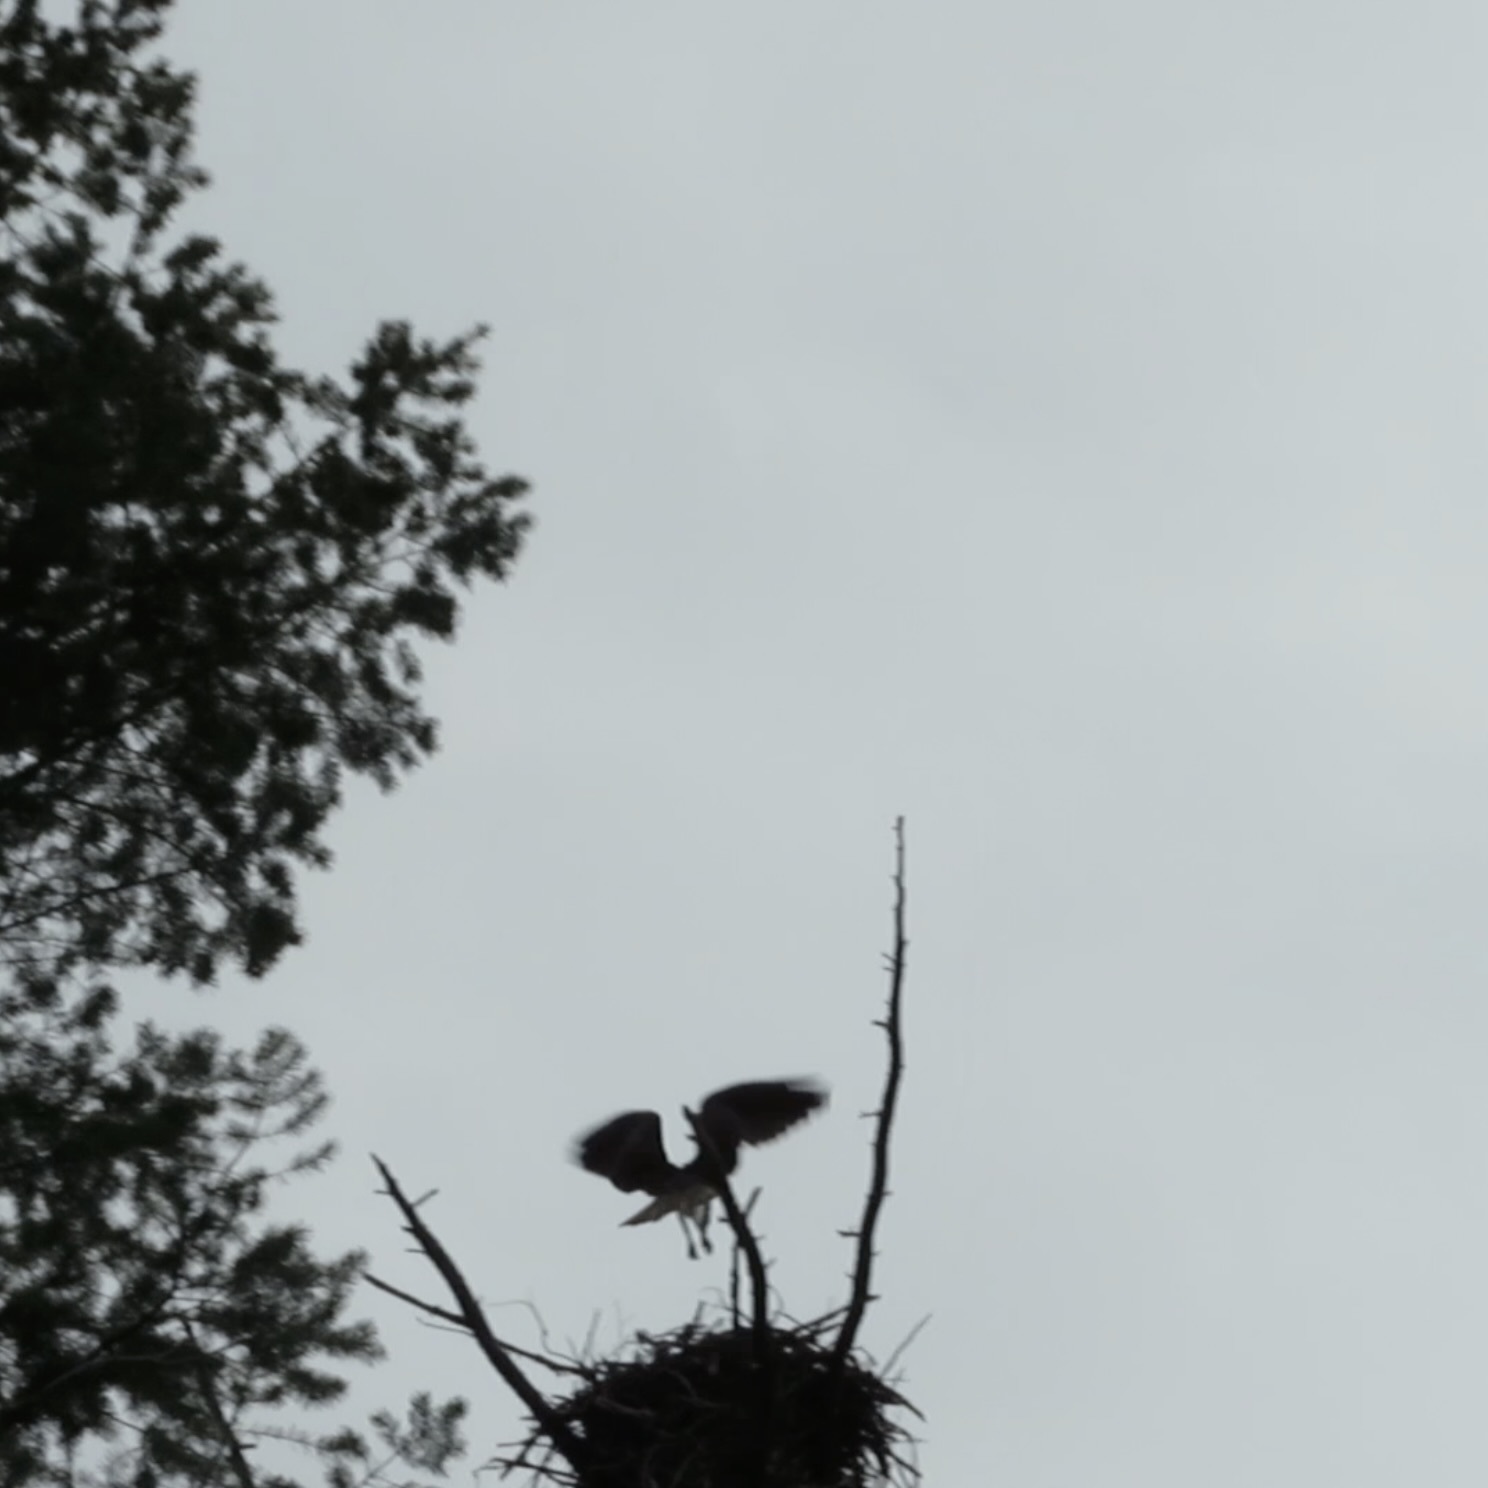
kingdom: Animalia
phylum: Chordata
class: Aves
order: Accipitriformes
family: Pandionidae
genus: Pandion
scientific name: Pandion haliaetus
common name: Osprey
